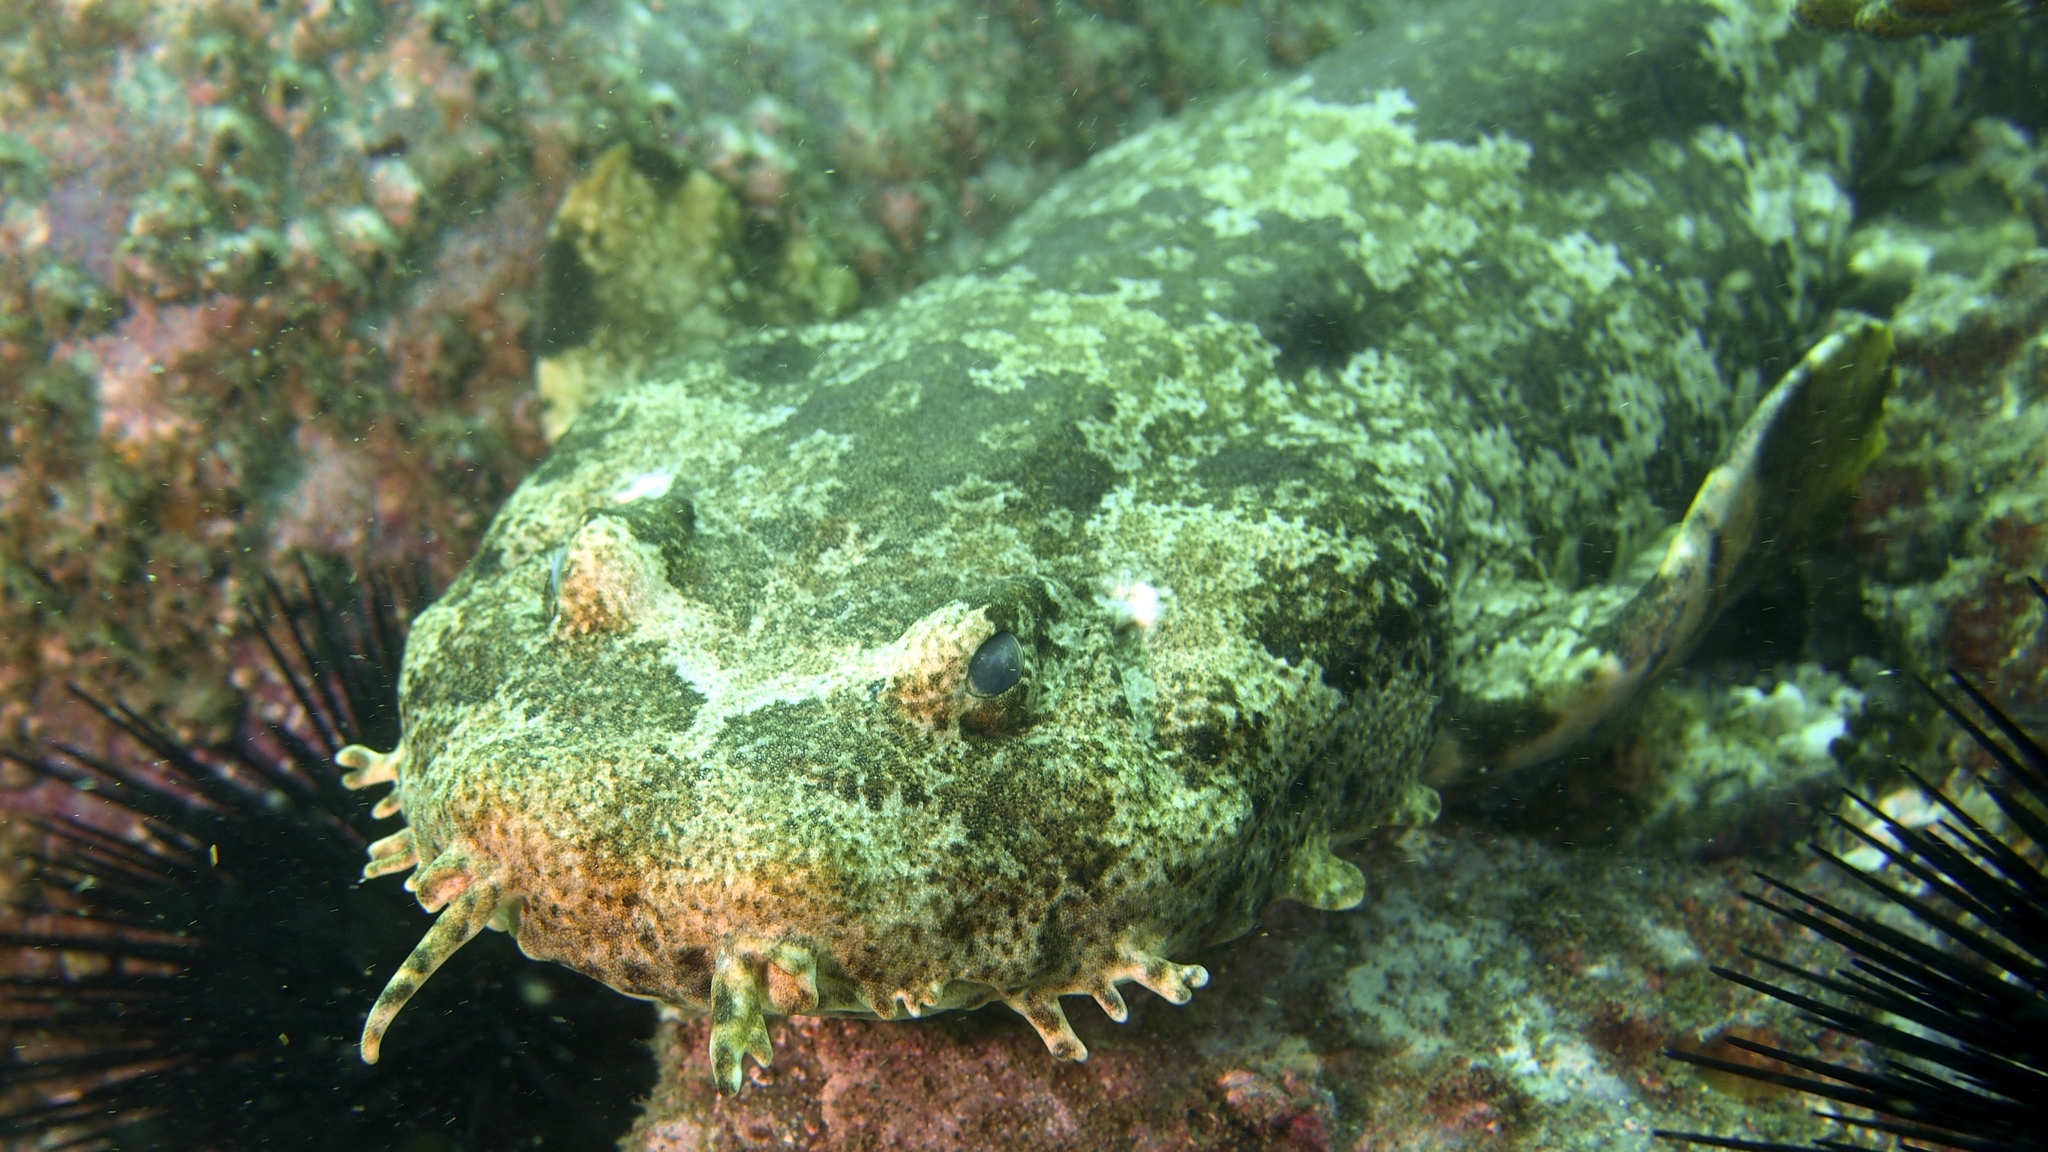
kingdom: Animalia
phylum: Chordata
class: Elasmobranchii
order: Orectolobiformes
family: Orectolobidae
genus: Orectolobus
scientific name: Orectolobus ornatus
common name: Ornate wobbegong
